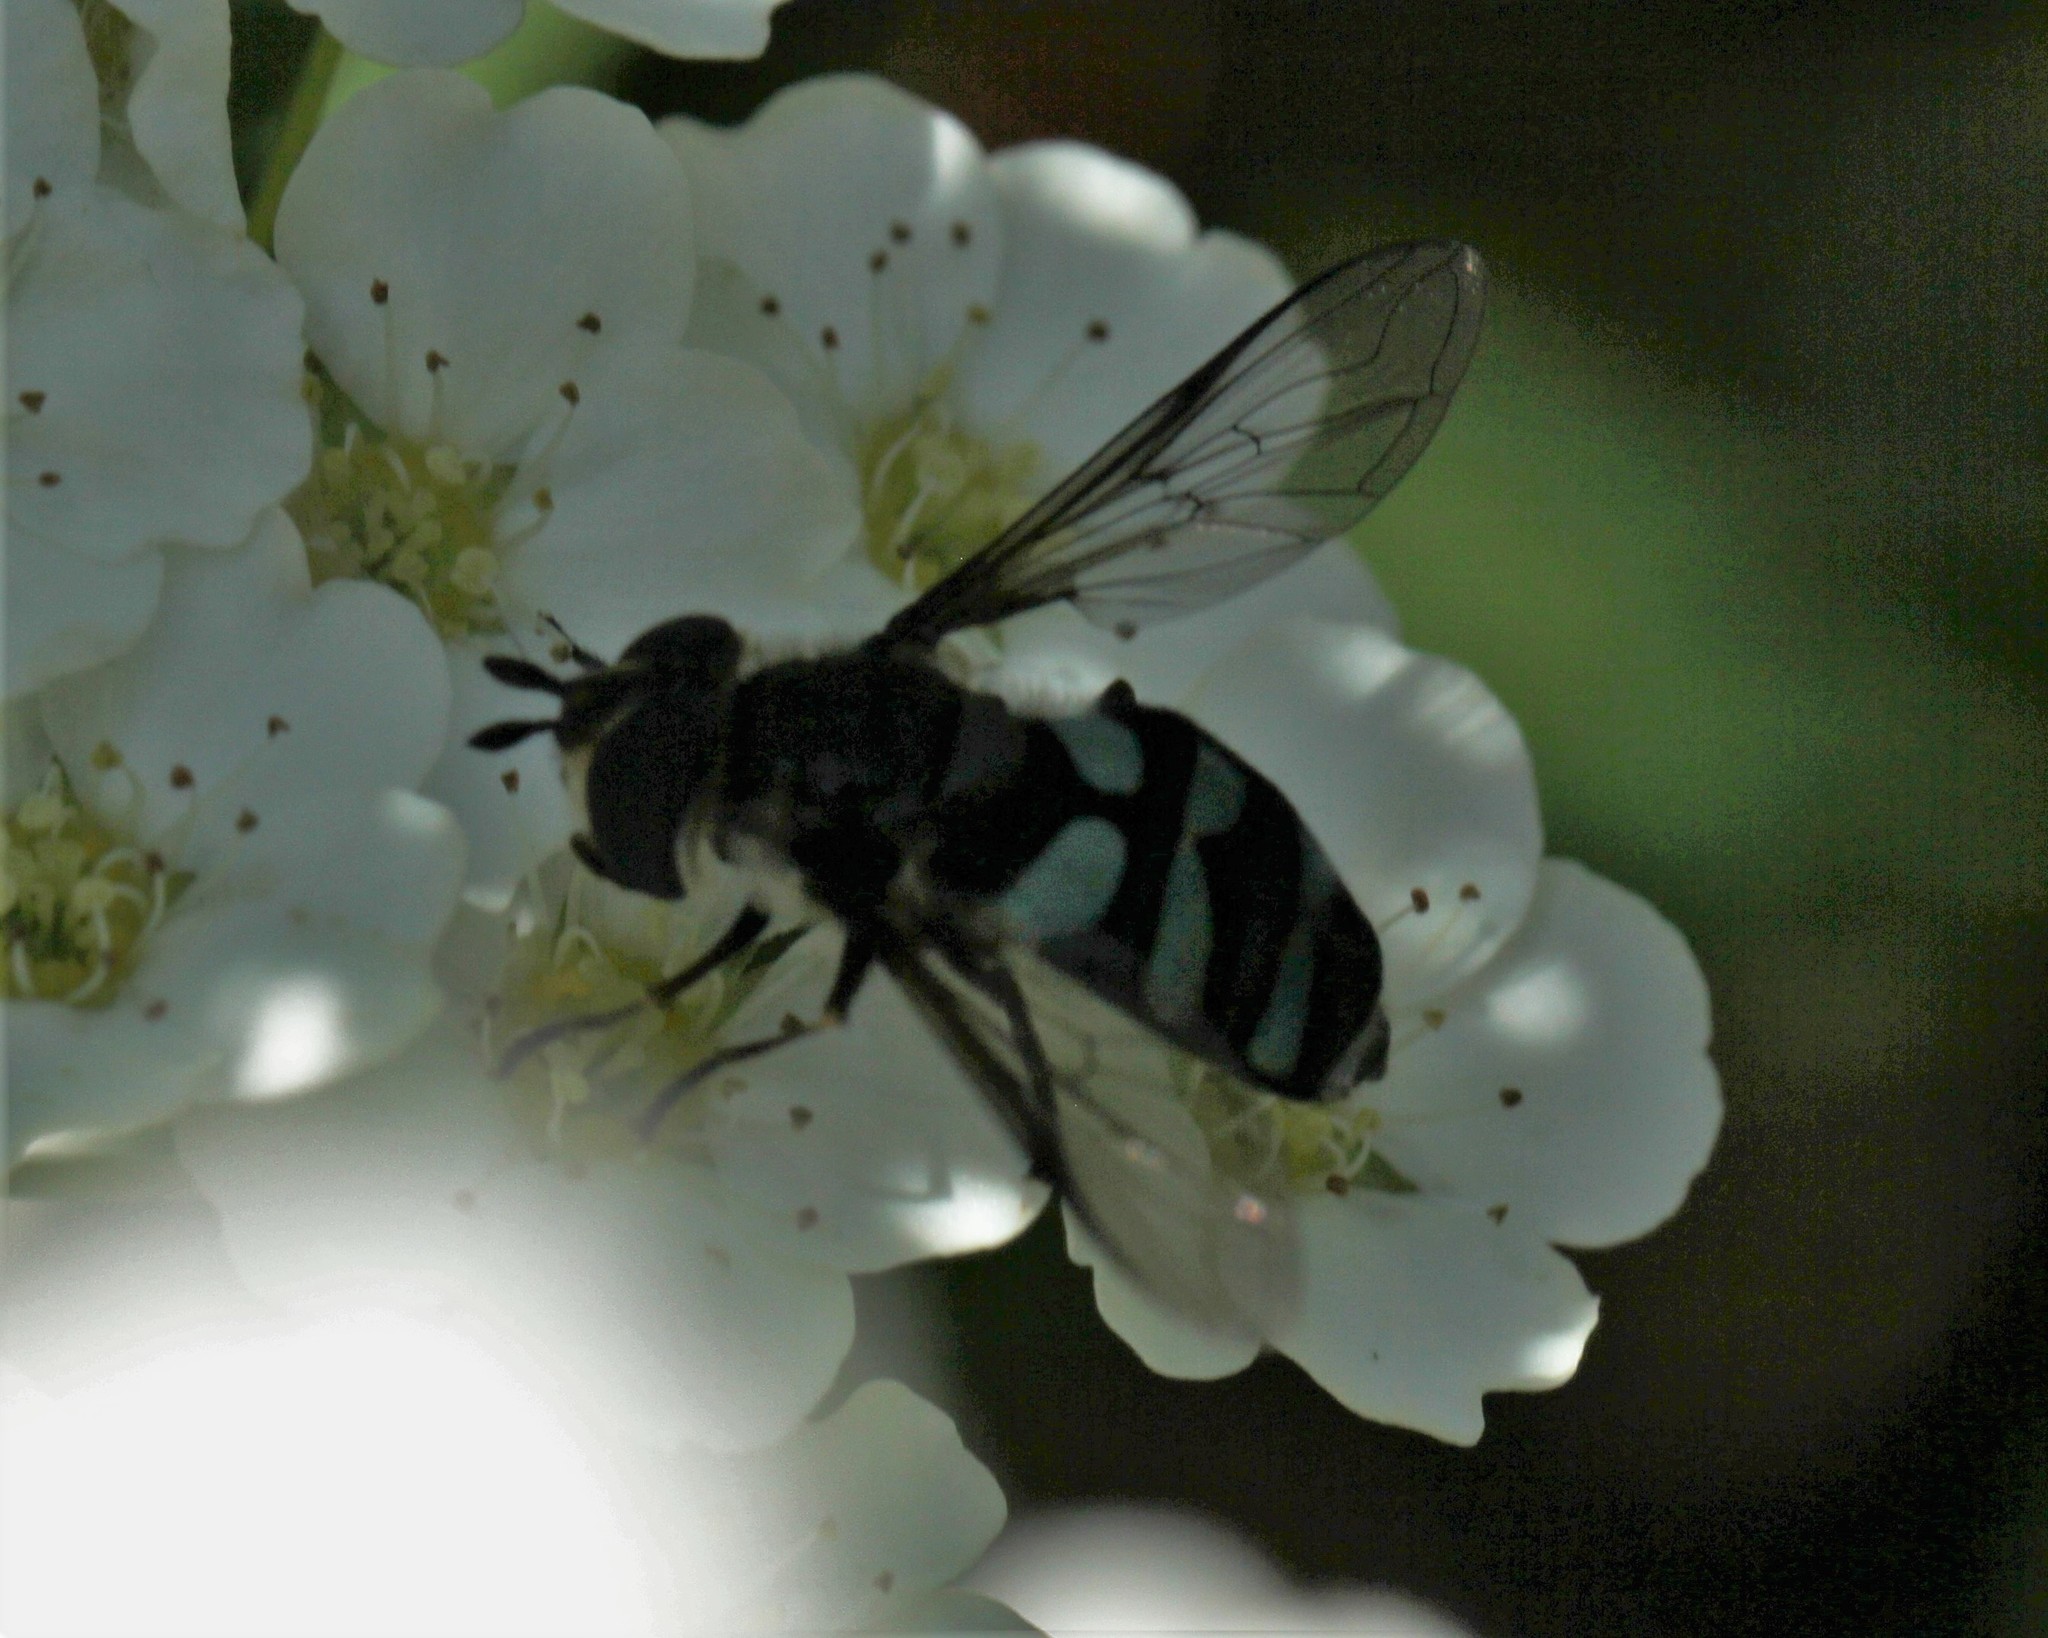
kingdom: Animalia
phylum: Arthropoda
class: Insecta
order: Diptera
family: Syrphidae
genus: Didea
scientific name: Didea alneti
